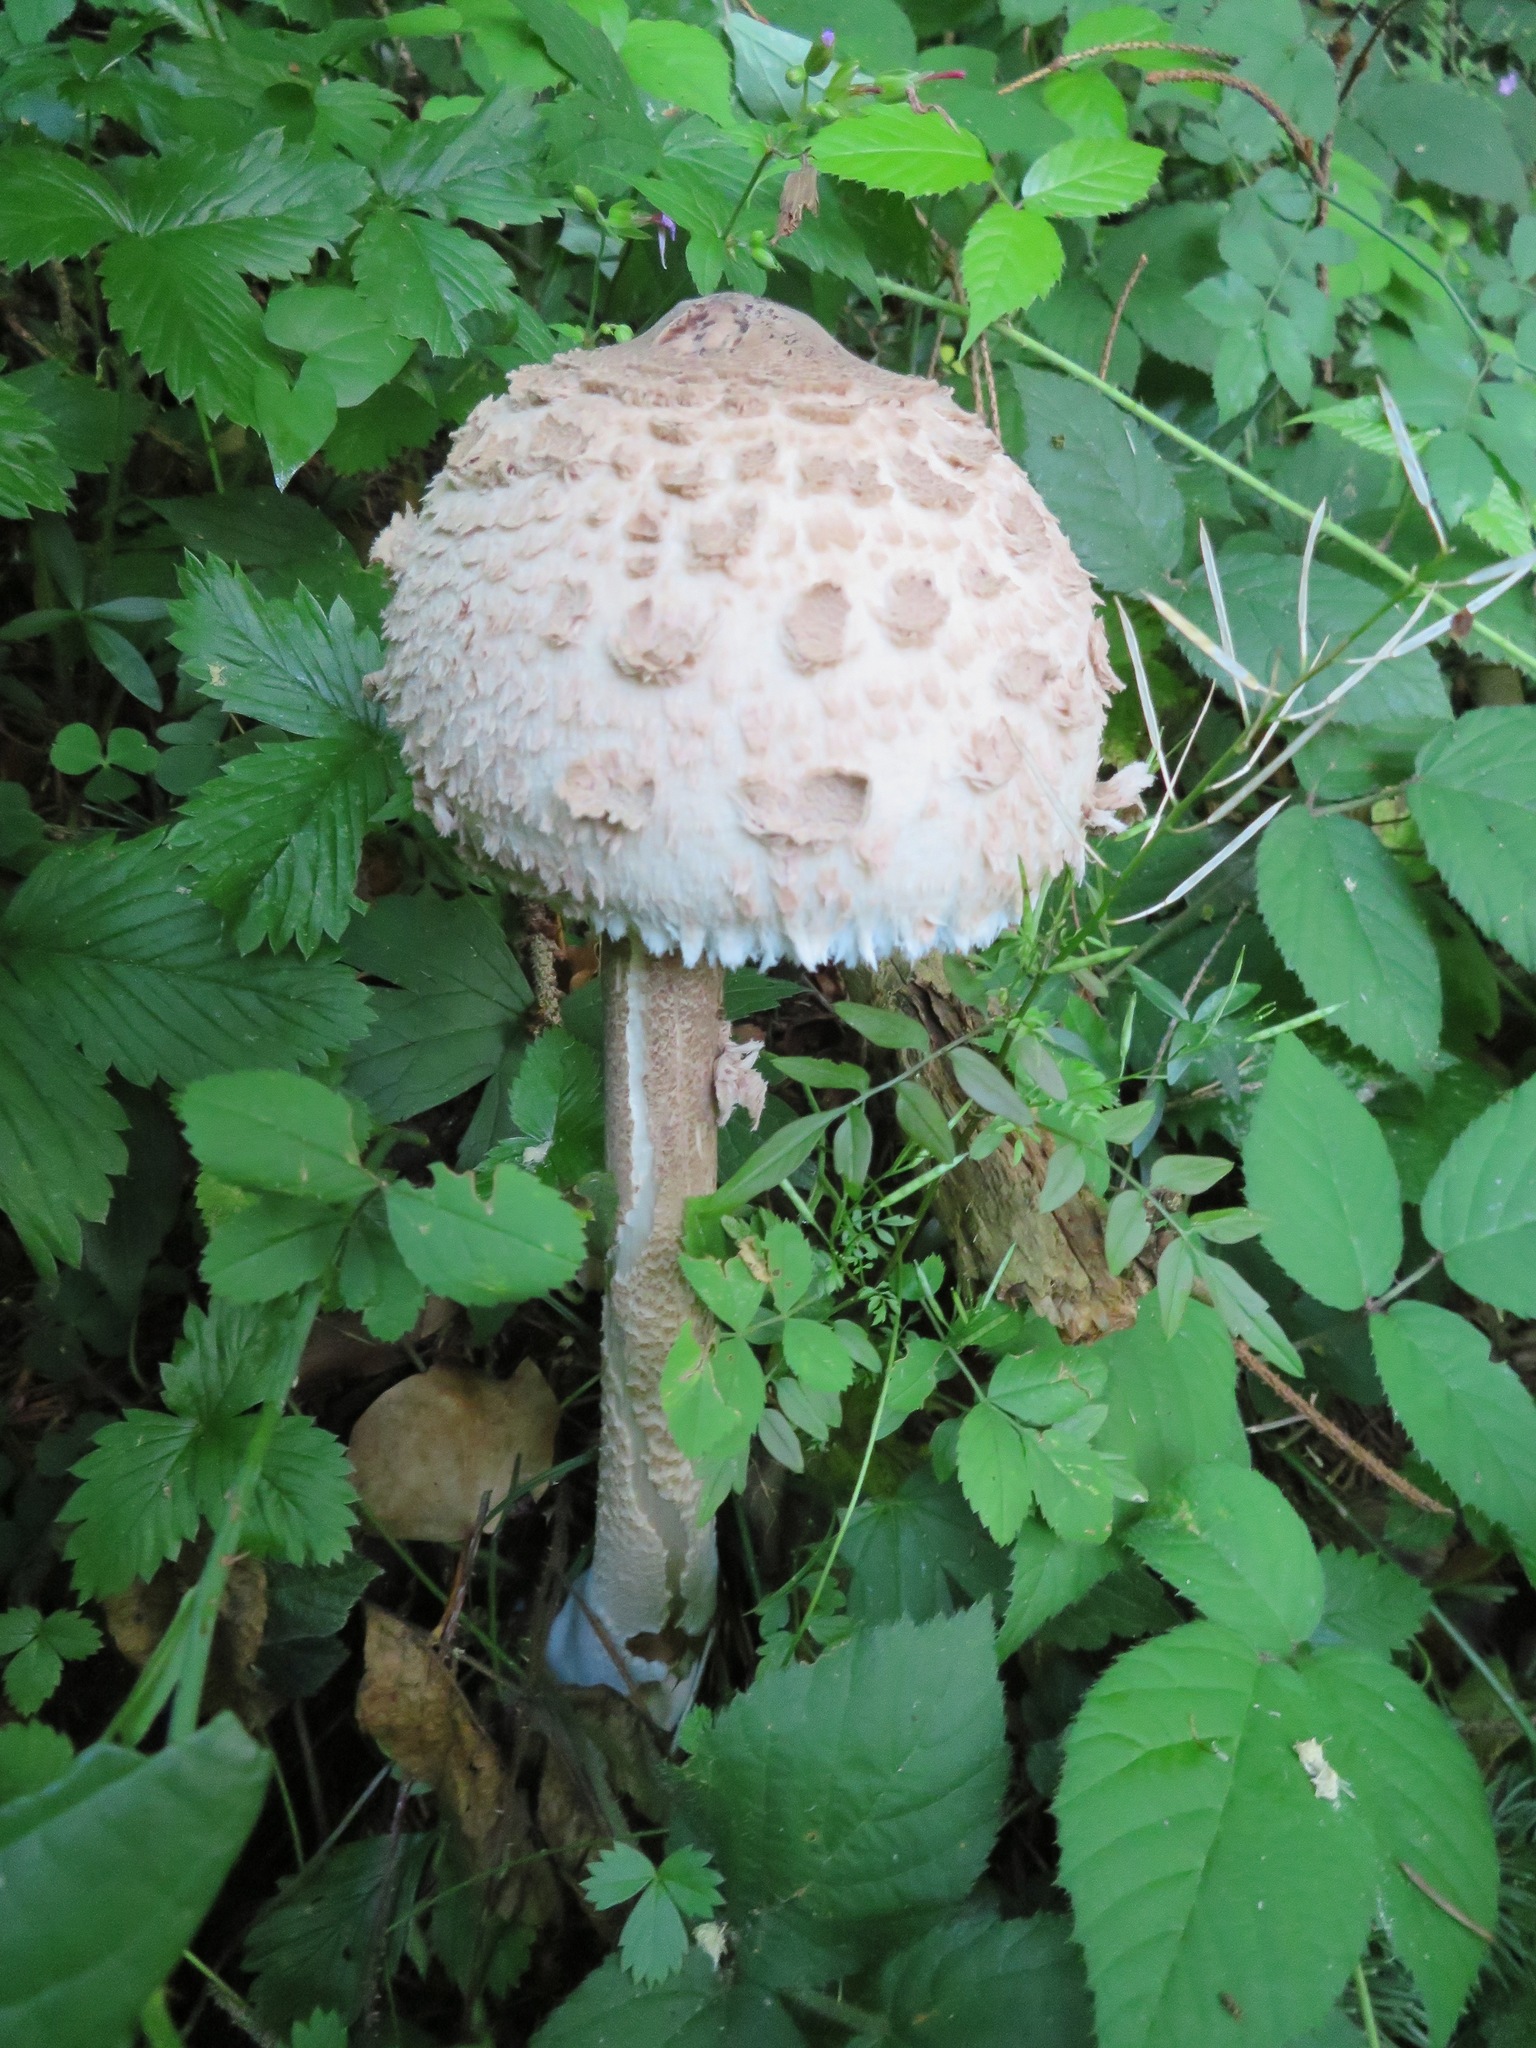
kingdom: Fungi
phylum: Basidiomycota
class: Agaricomycetes
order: Agaricales
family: Agaricaceae
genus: Macrolepiota
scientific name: Macrolepiota procera
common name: Parasol
